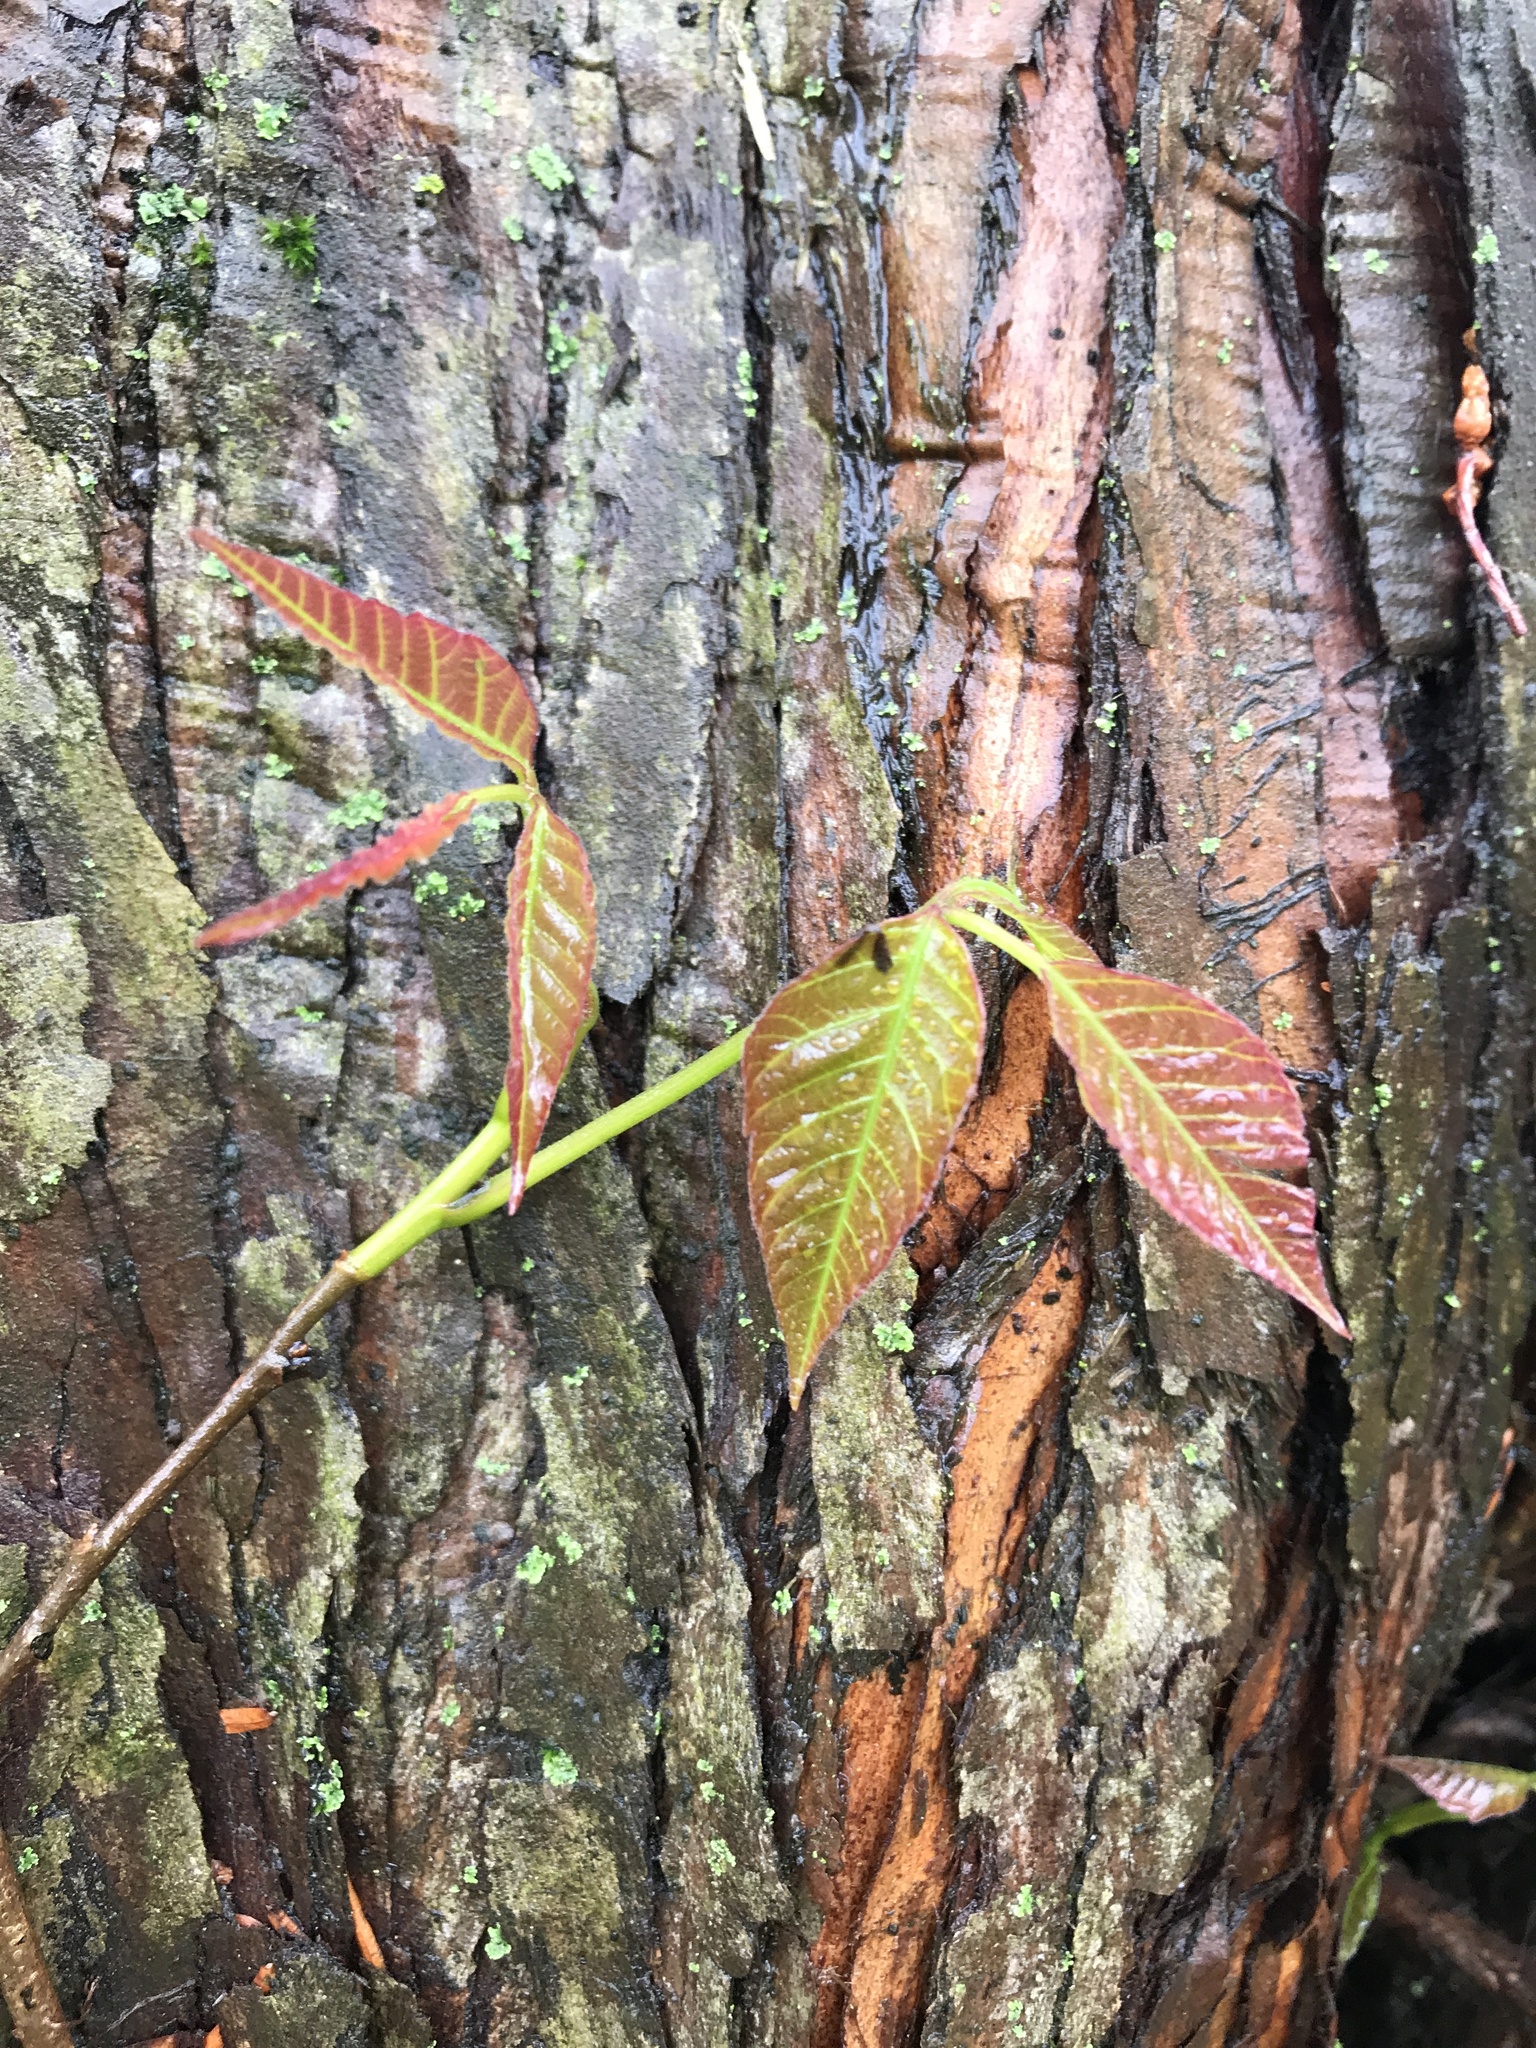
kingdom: Plantae
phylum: Tracheophyta
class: Magnoliopsida
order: Sapindales
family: Anacardiaceae
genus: Toxicodendron
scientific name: Toxicodendron radicans
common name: Poison ivy
